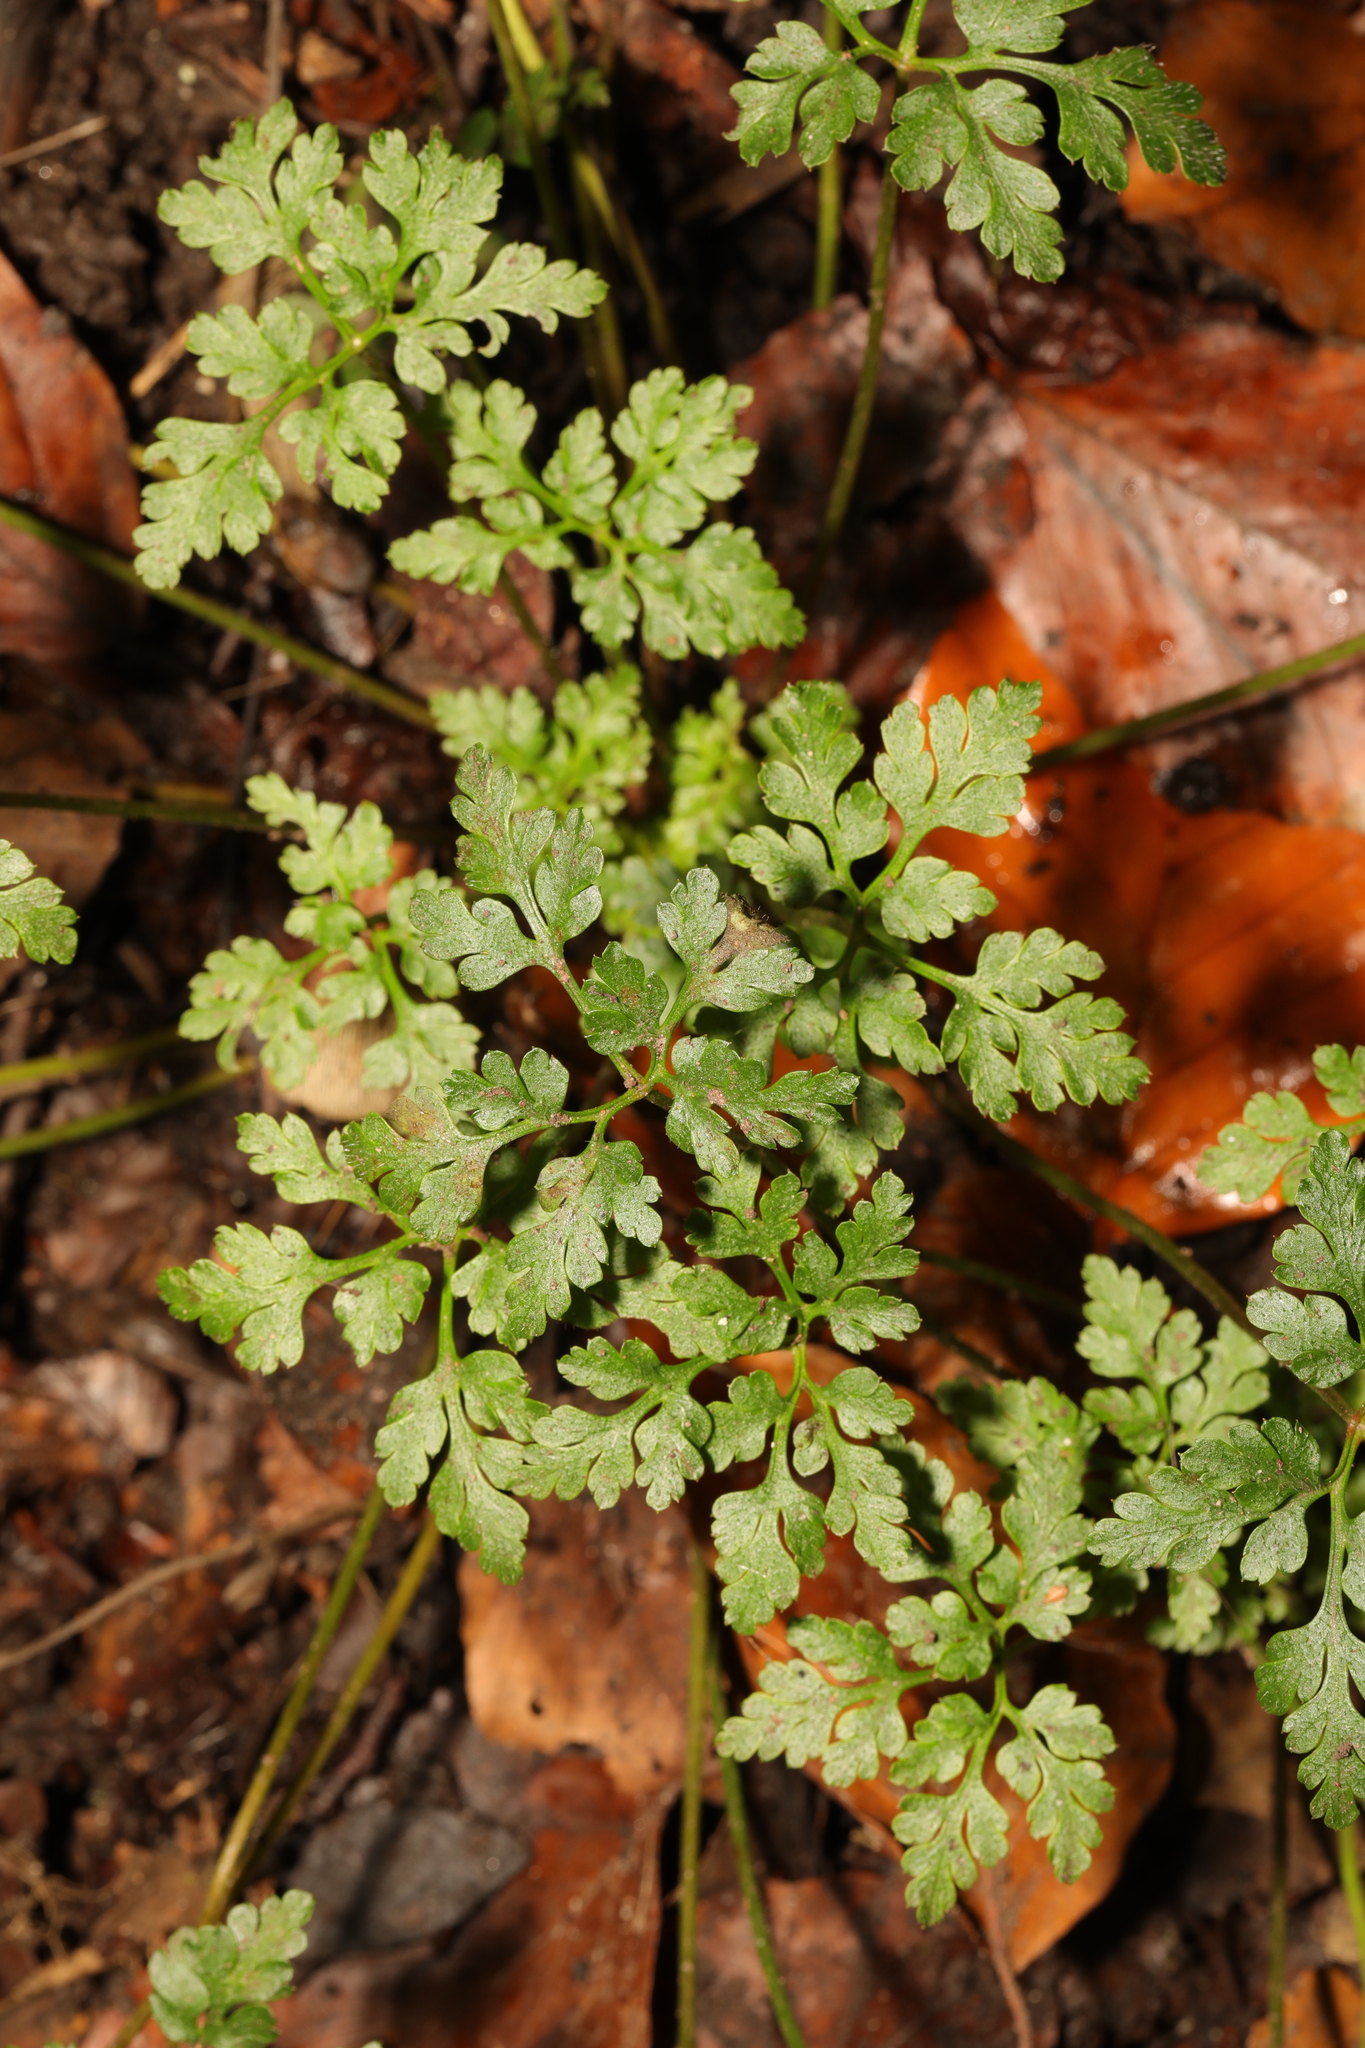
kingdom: Plantae
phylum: Tracheophyta
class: Magnoliopsida
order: Geraniales
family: Geraniaceae
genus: Geranium
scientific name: Geranium robertianum
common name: Herb-robert
